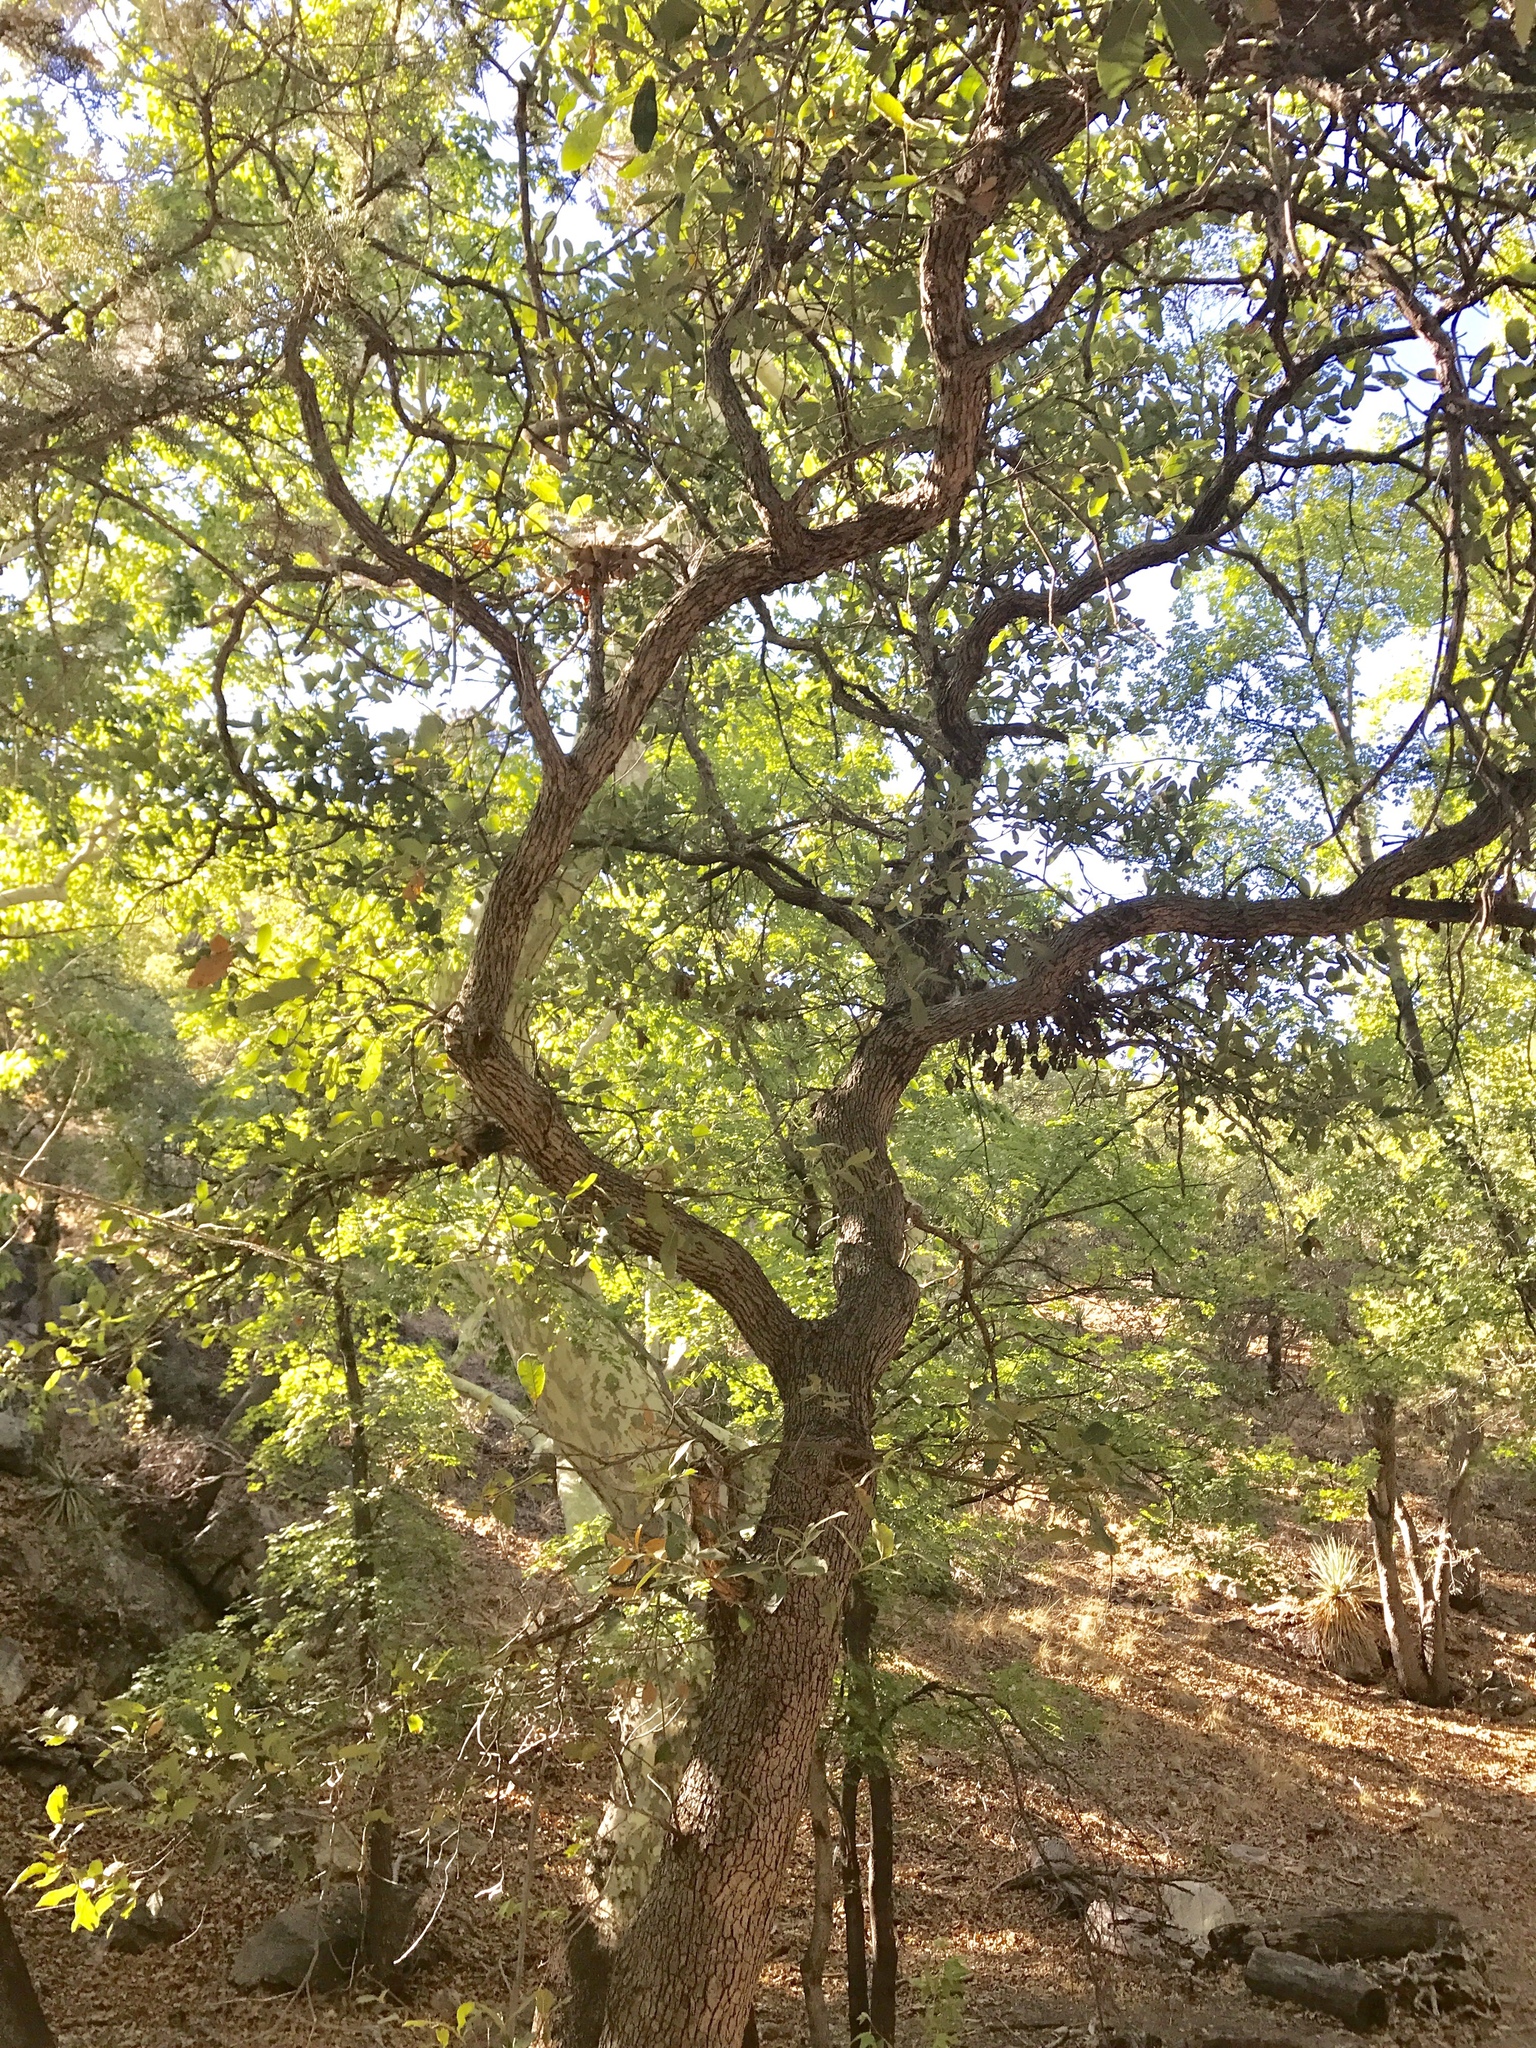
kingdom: Plantae
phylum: Tracheophyta
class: Magnoliopsida
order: Fagales
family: Fagaceae
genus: Quercus
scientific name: Quercus arizonica
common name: Arizona white oak
